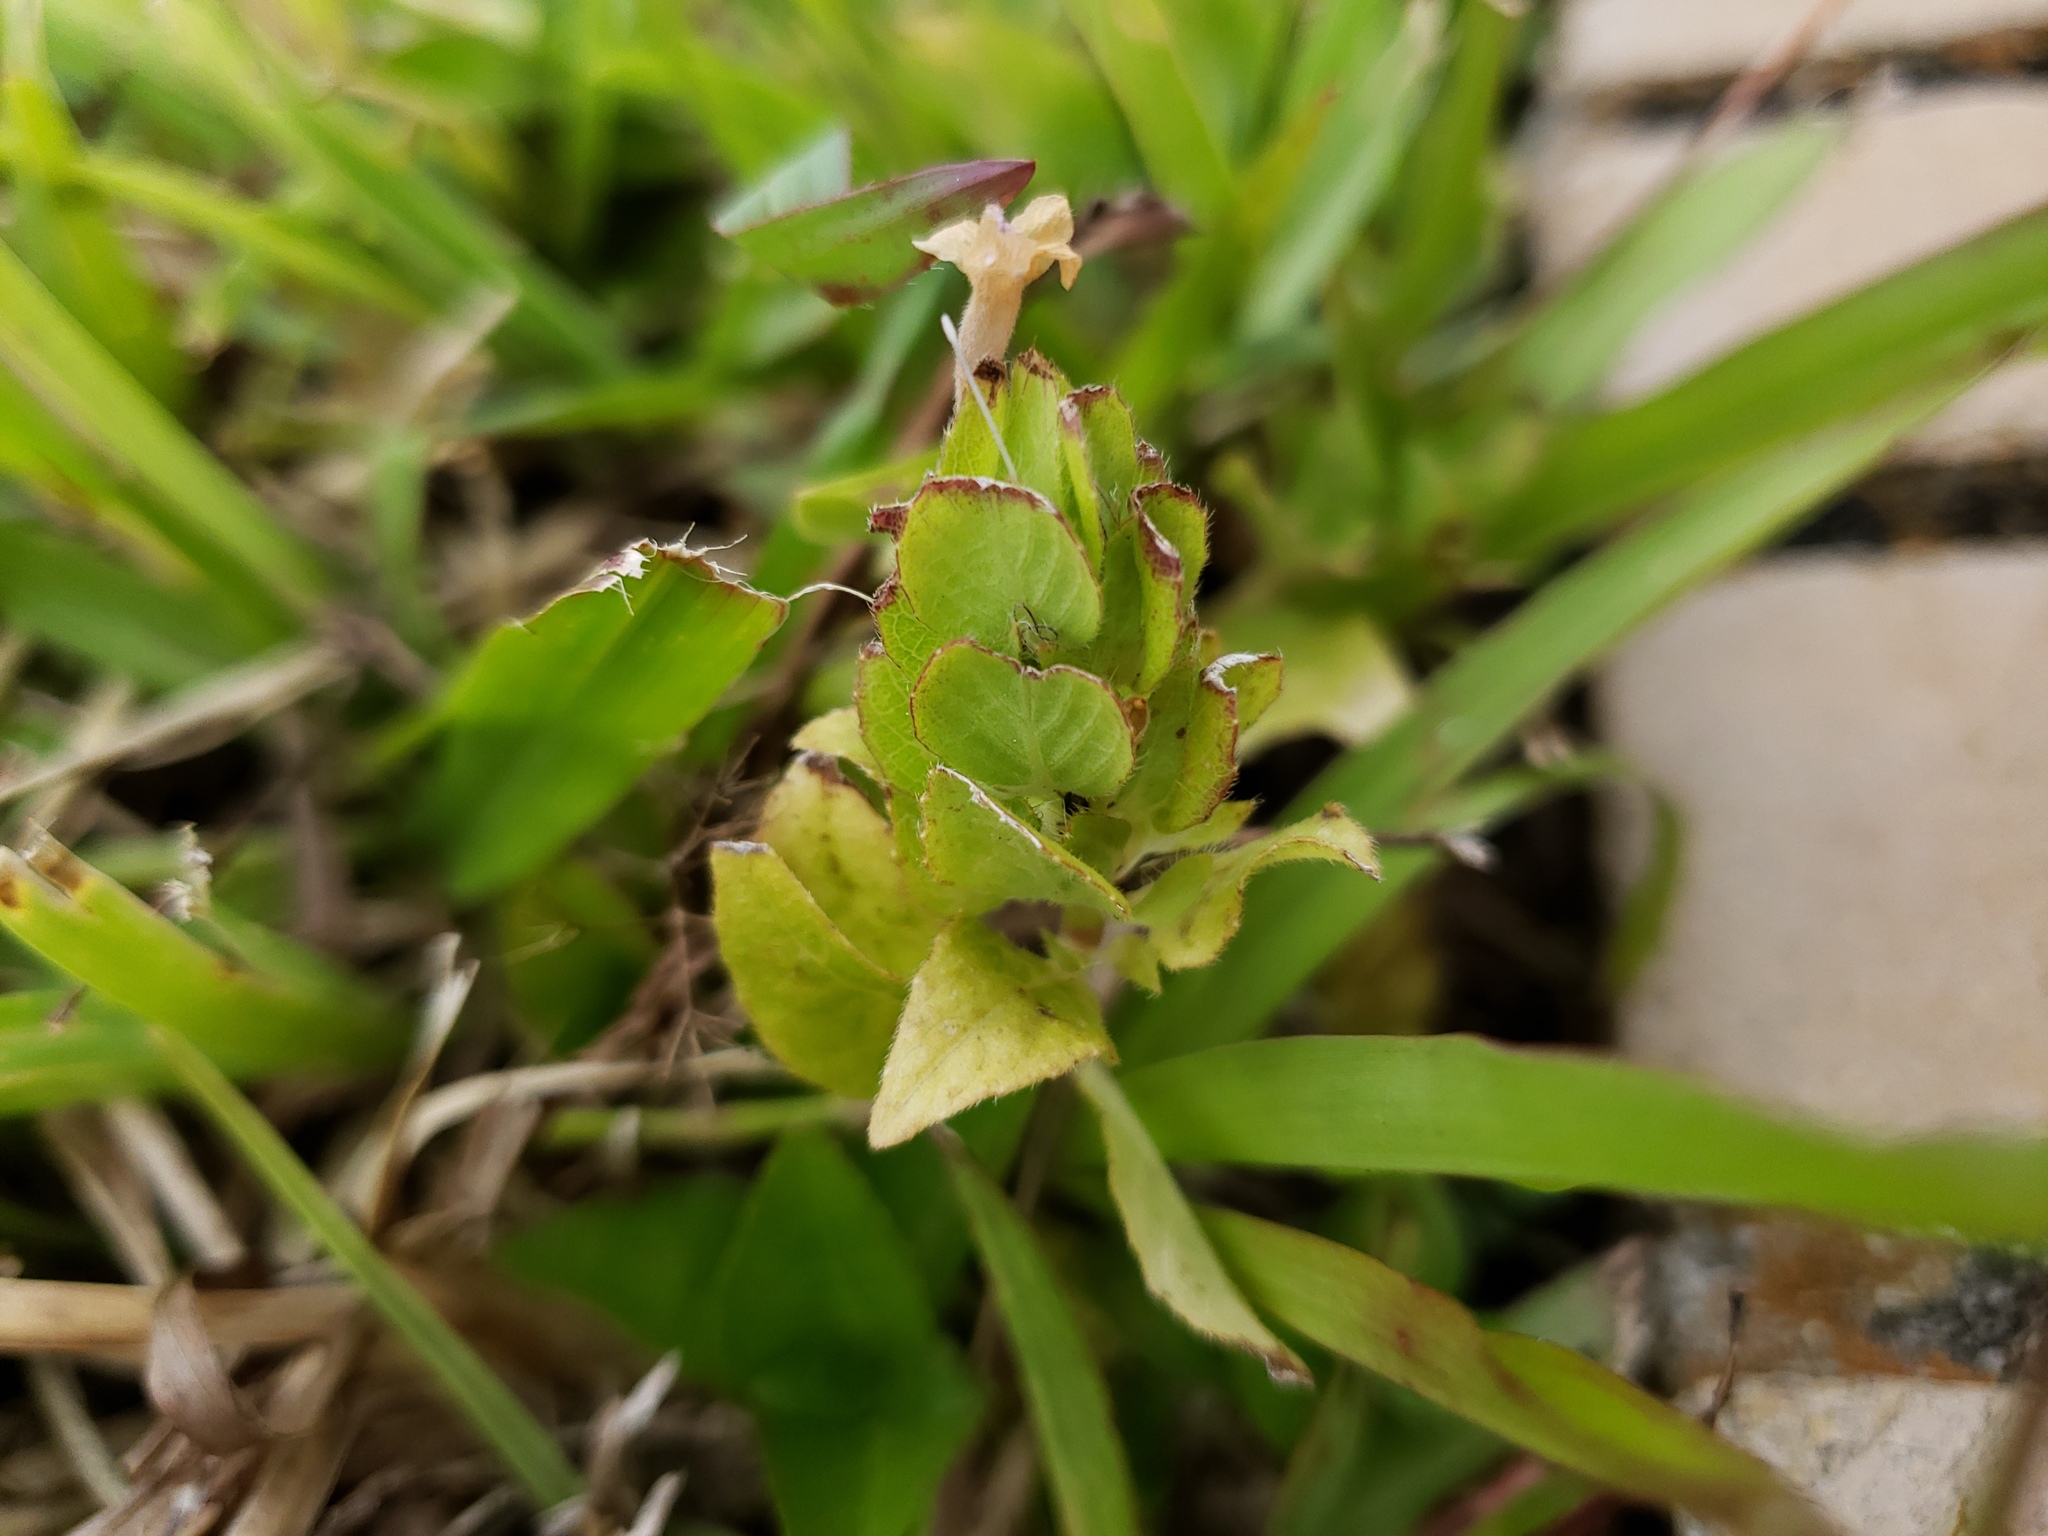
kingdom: Plantae
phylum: Tracheophyta
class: Magnoliopsida
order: Lamiales
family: Acanthaceae
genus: Ruellia
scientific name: Ruellia blechum
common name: Browne's blechum
